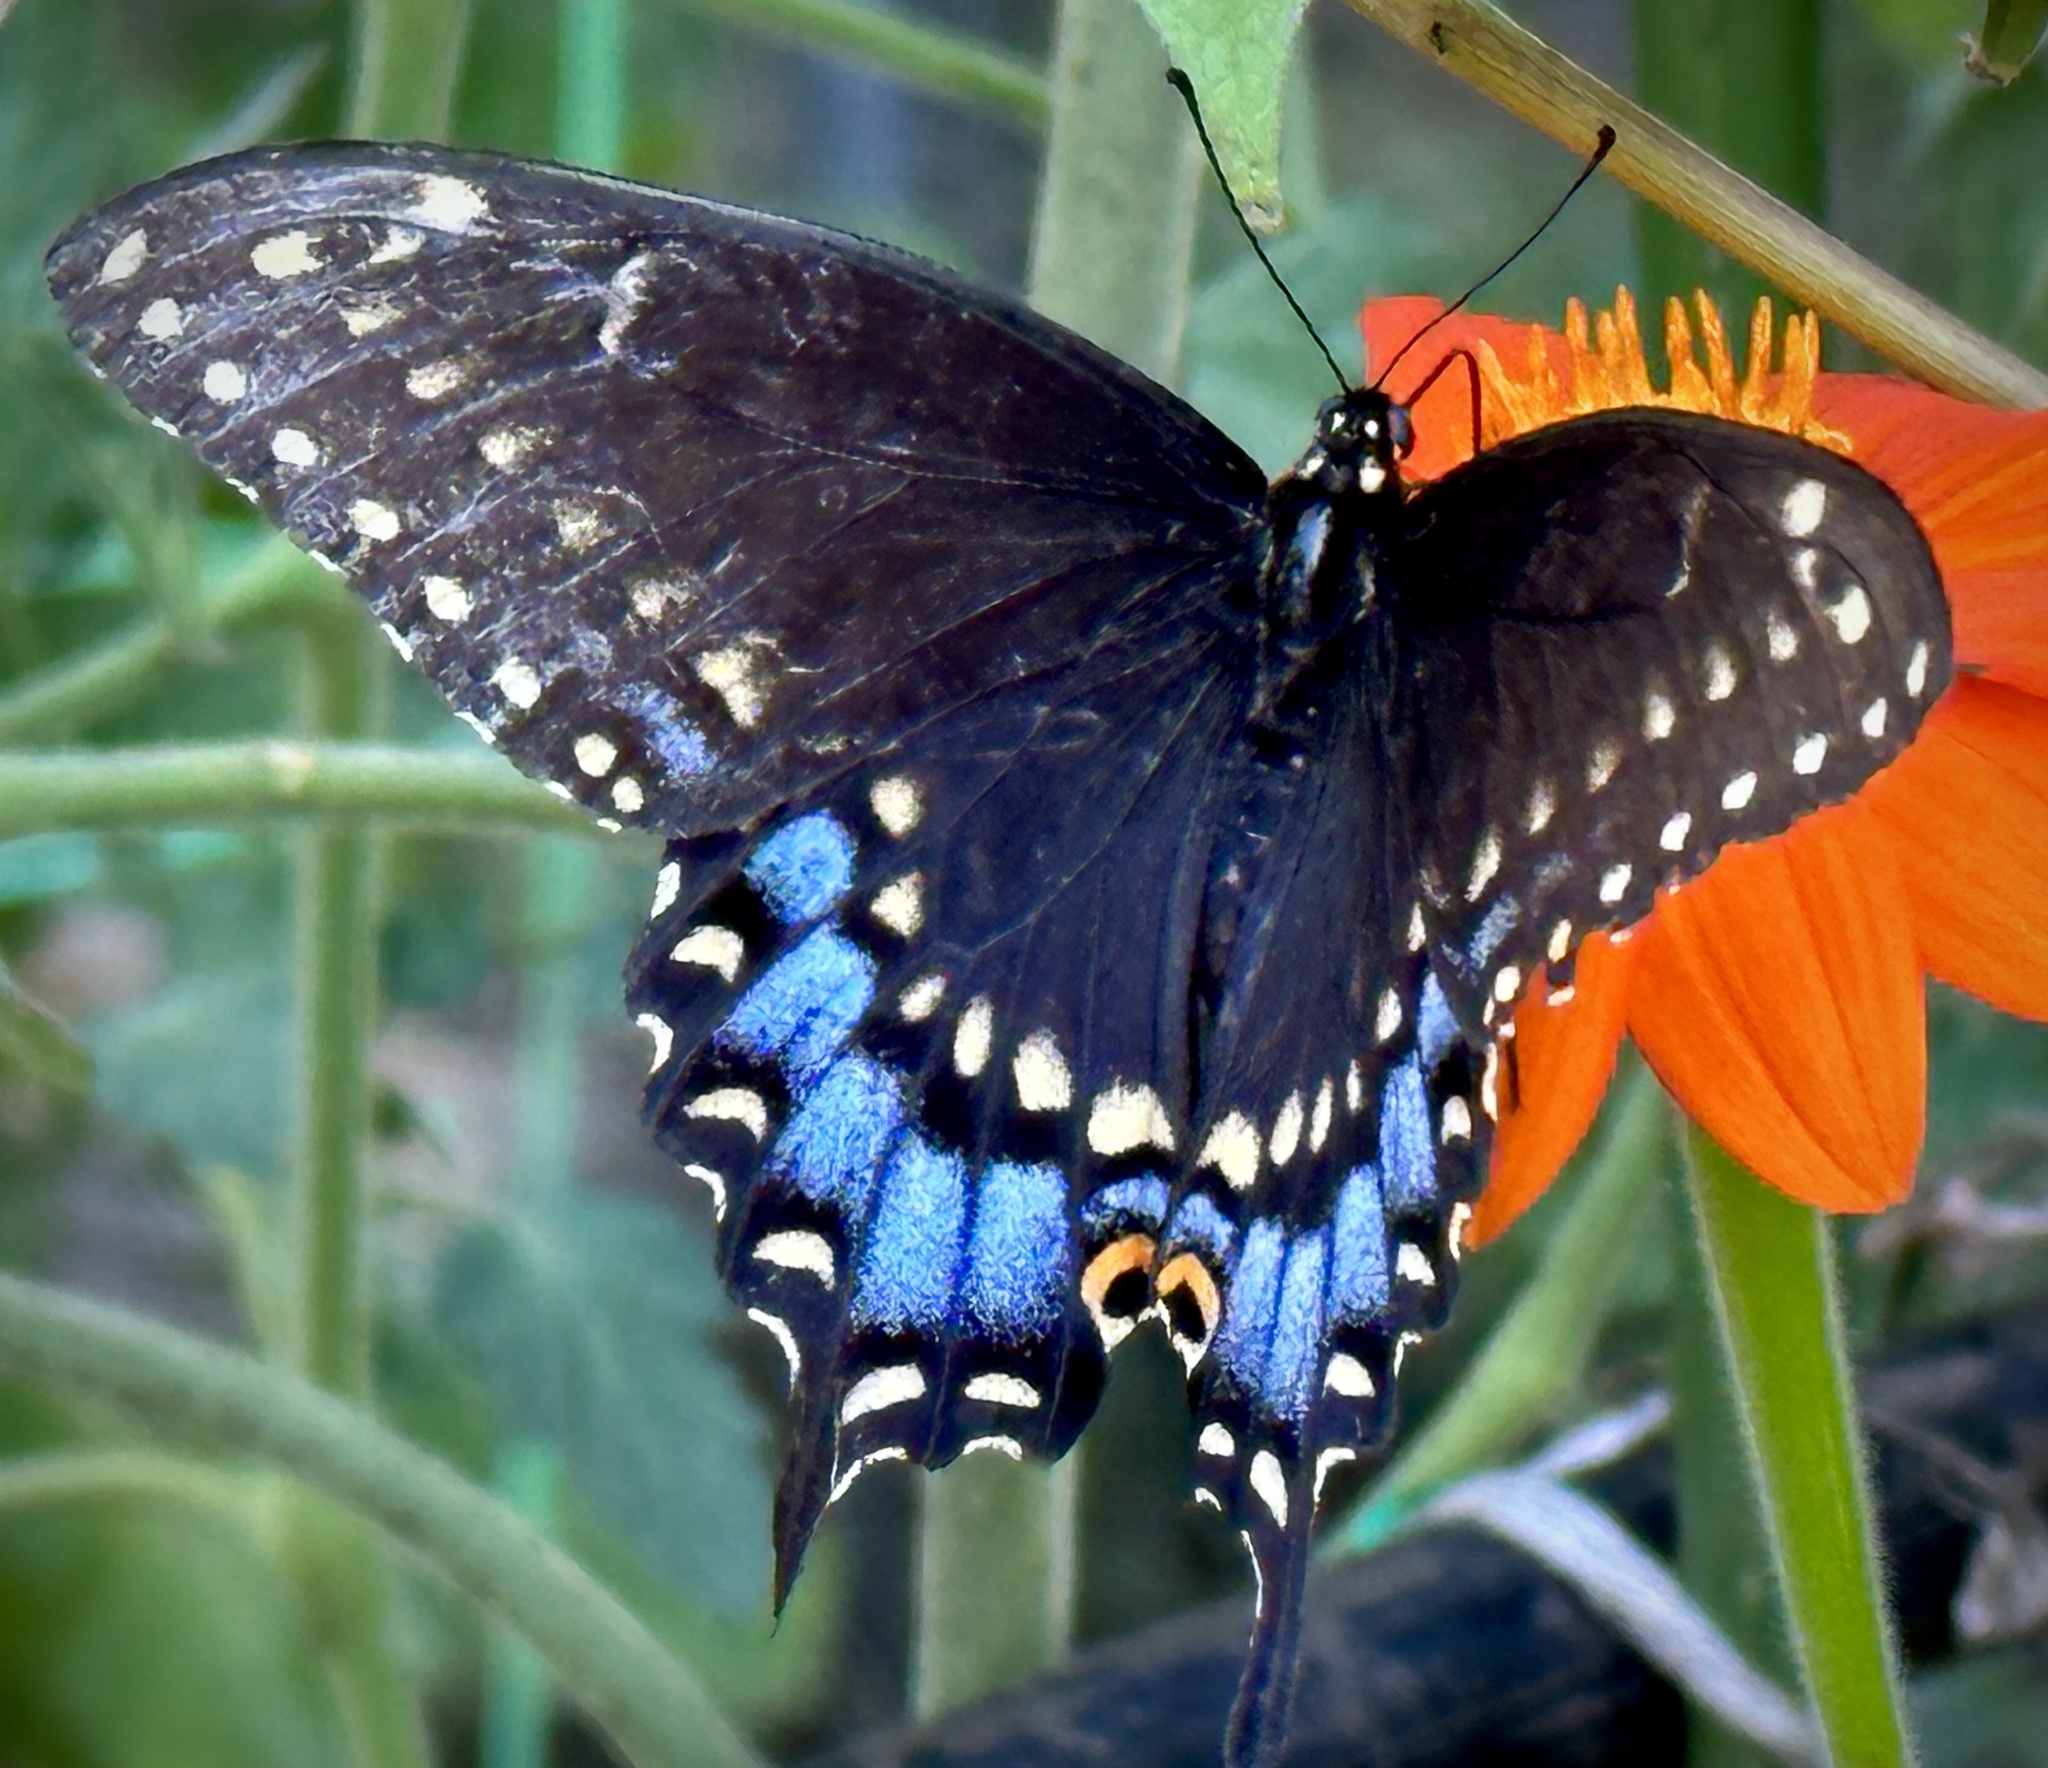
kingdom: Animalia
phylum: Arthropoda
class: Insecta
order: Lepidoptera
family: Papilionidae
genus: Papilio
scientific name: Papilio polyxenes
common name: Black swallowtail
